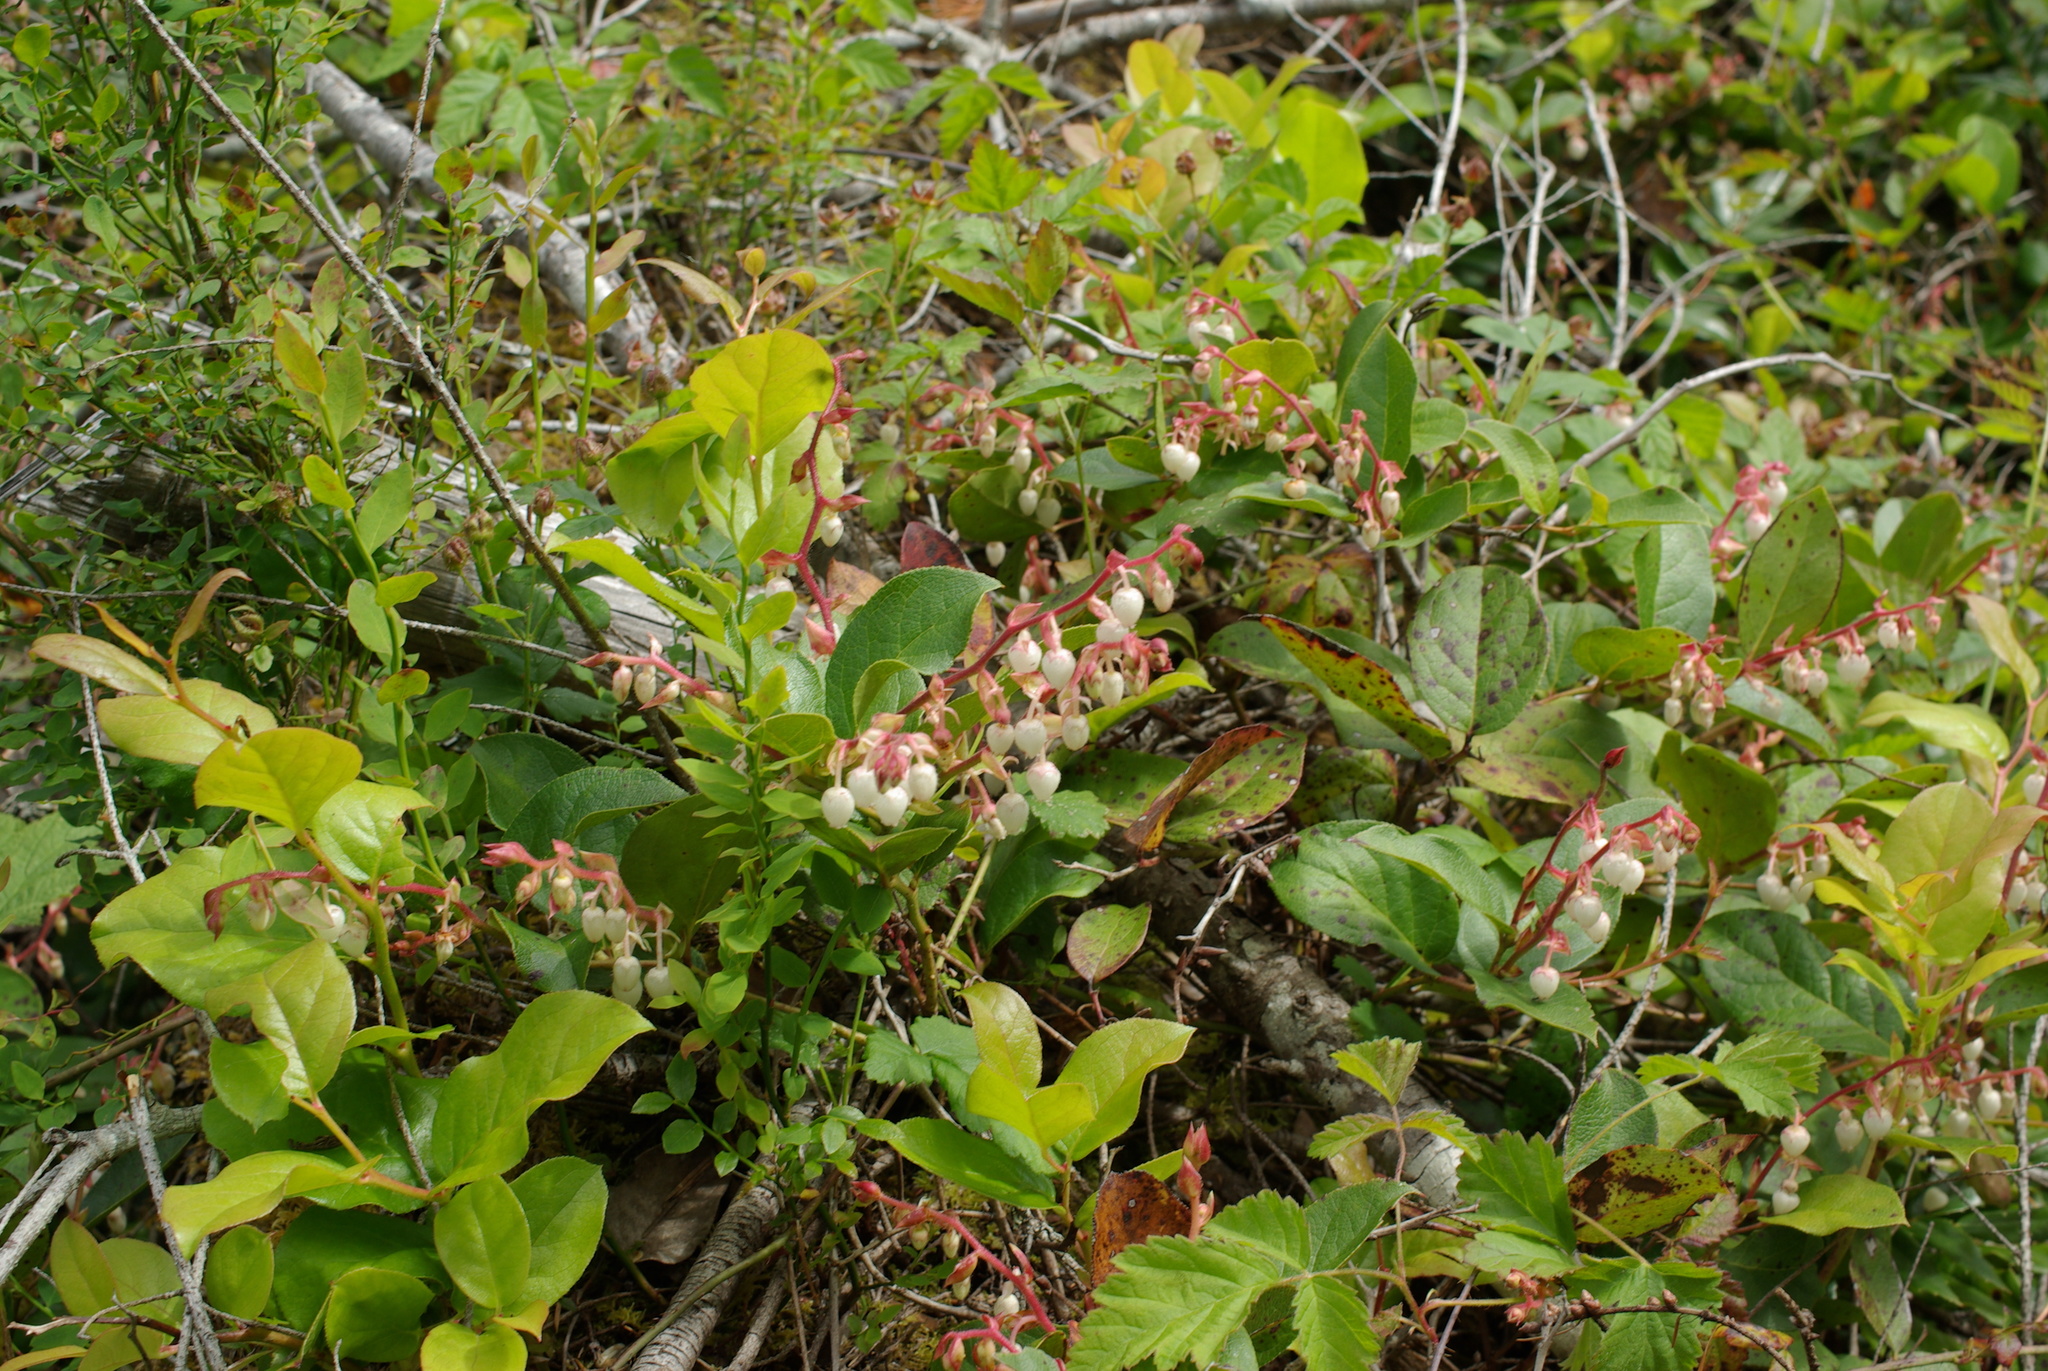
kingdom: Plantae
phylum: Tracheophyta
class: Magnoliopsida
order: Ericales
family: Ericaceae
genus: Gaultheria
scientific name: Gaultheria shallon
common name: Shallon
